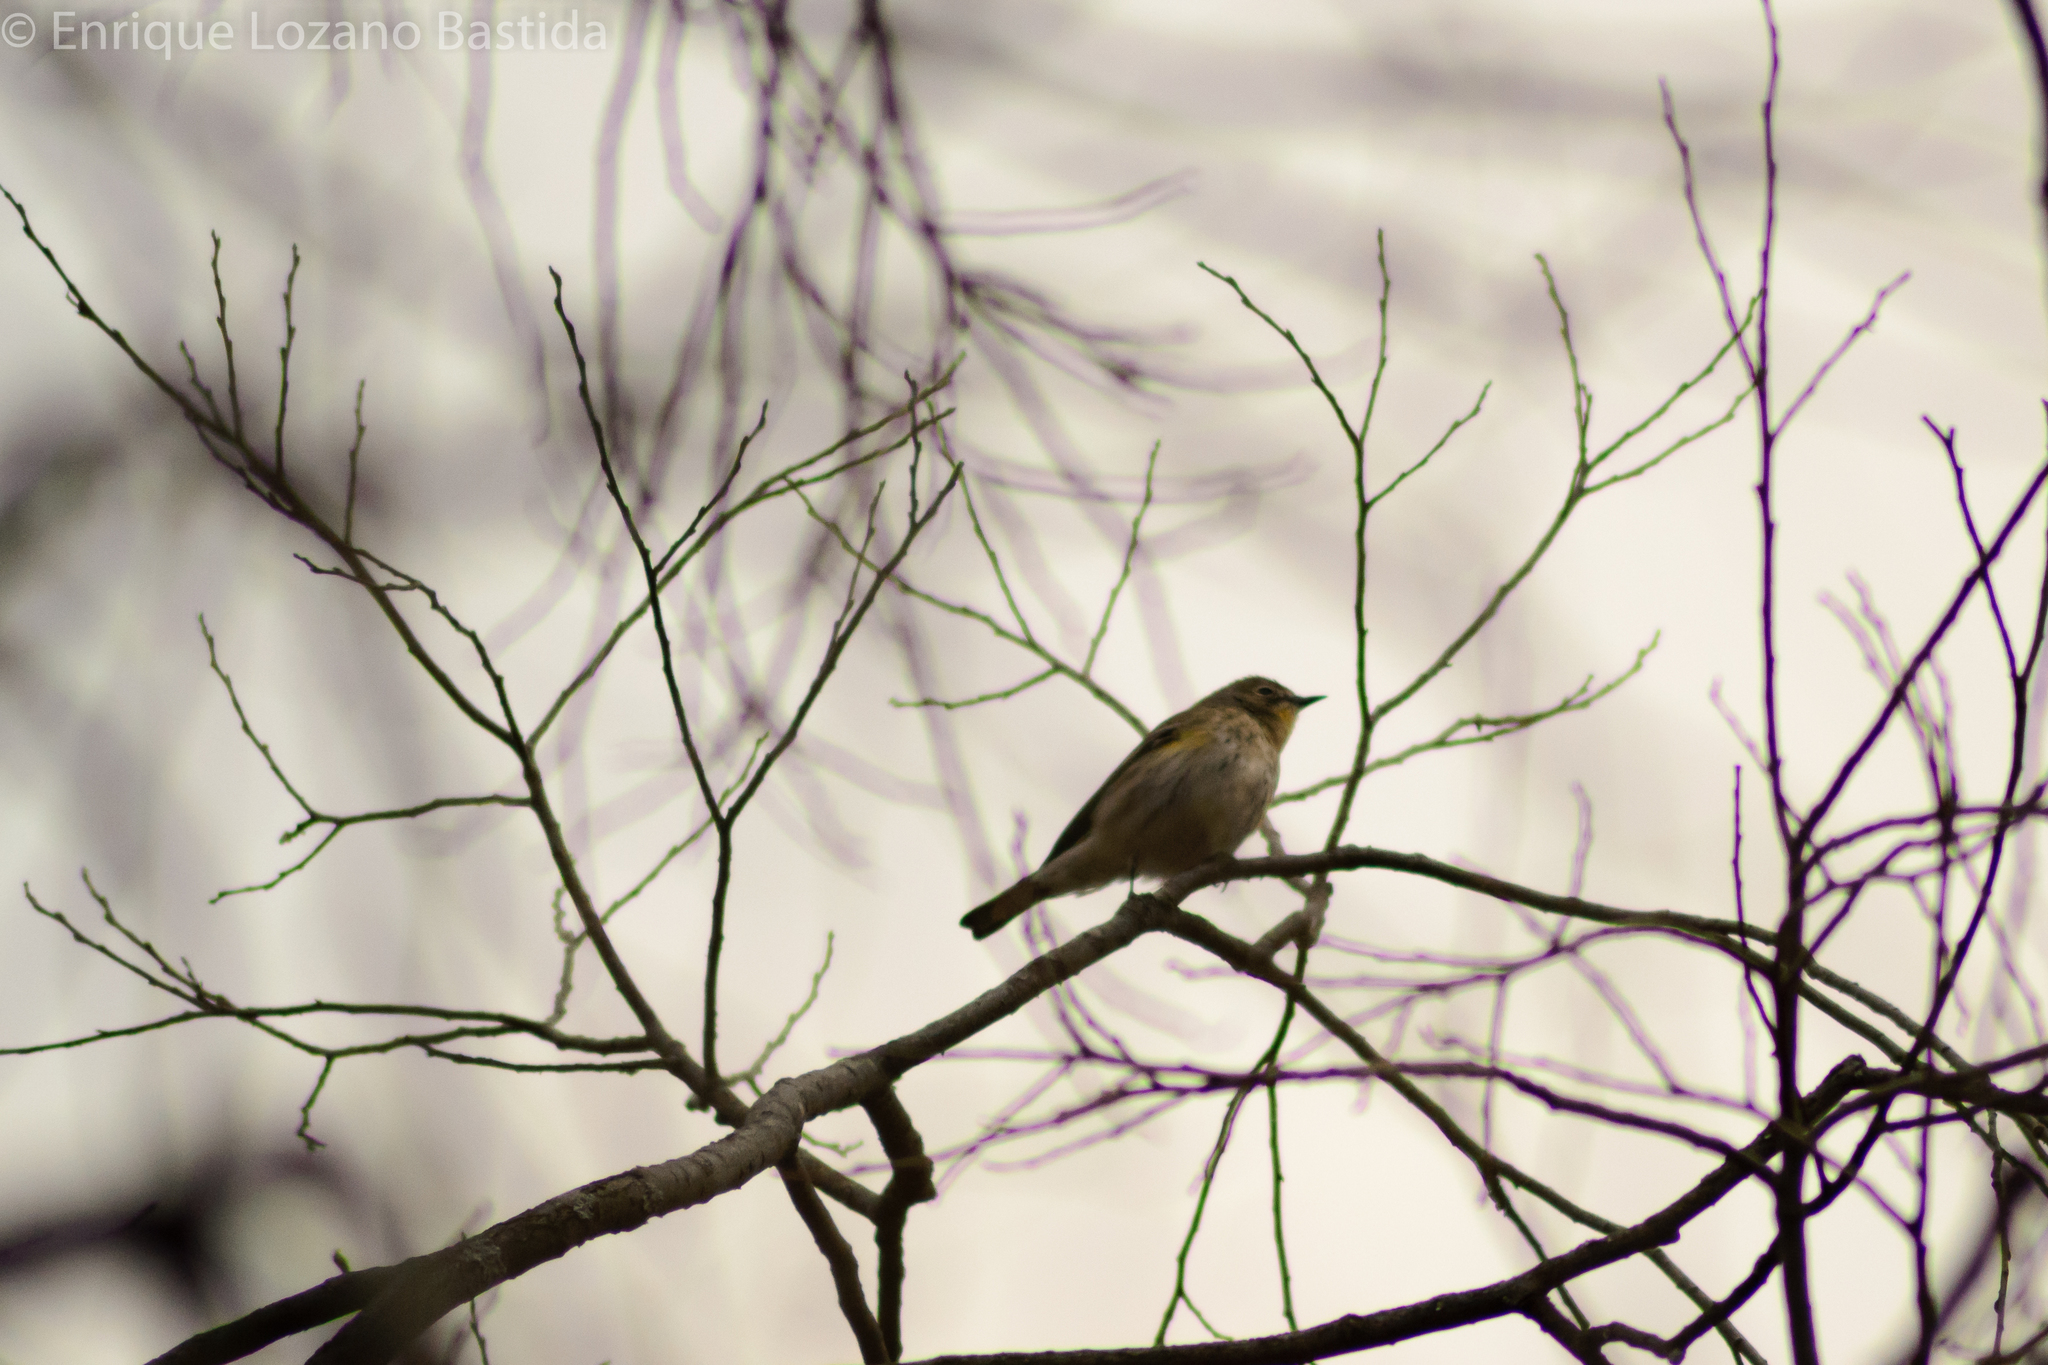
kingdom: Animalia
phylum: Chordata
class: Aves
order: Passeriformes
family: Parulidae
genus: Setophaga
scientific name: Setophaga coronata
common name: Myrtle warbler
